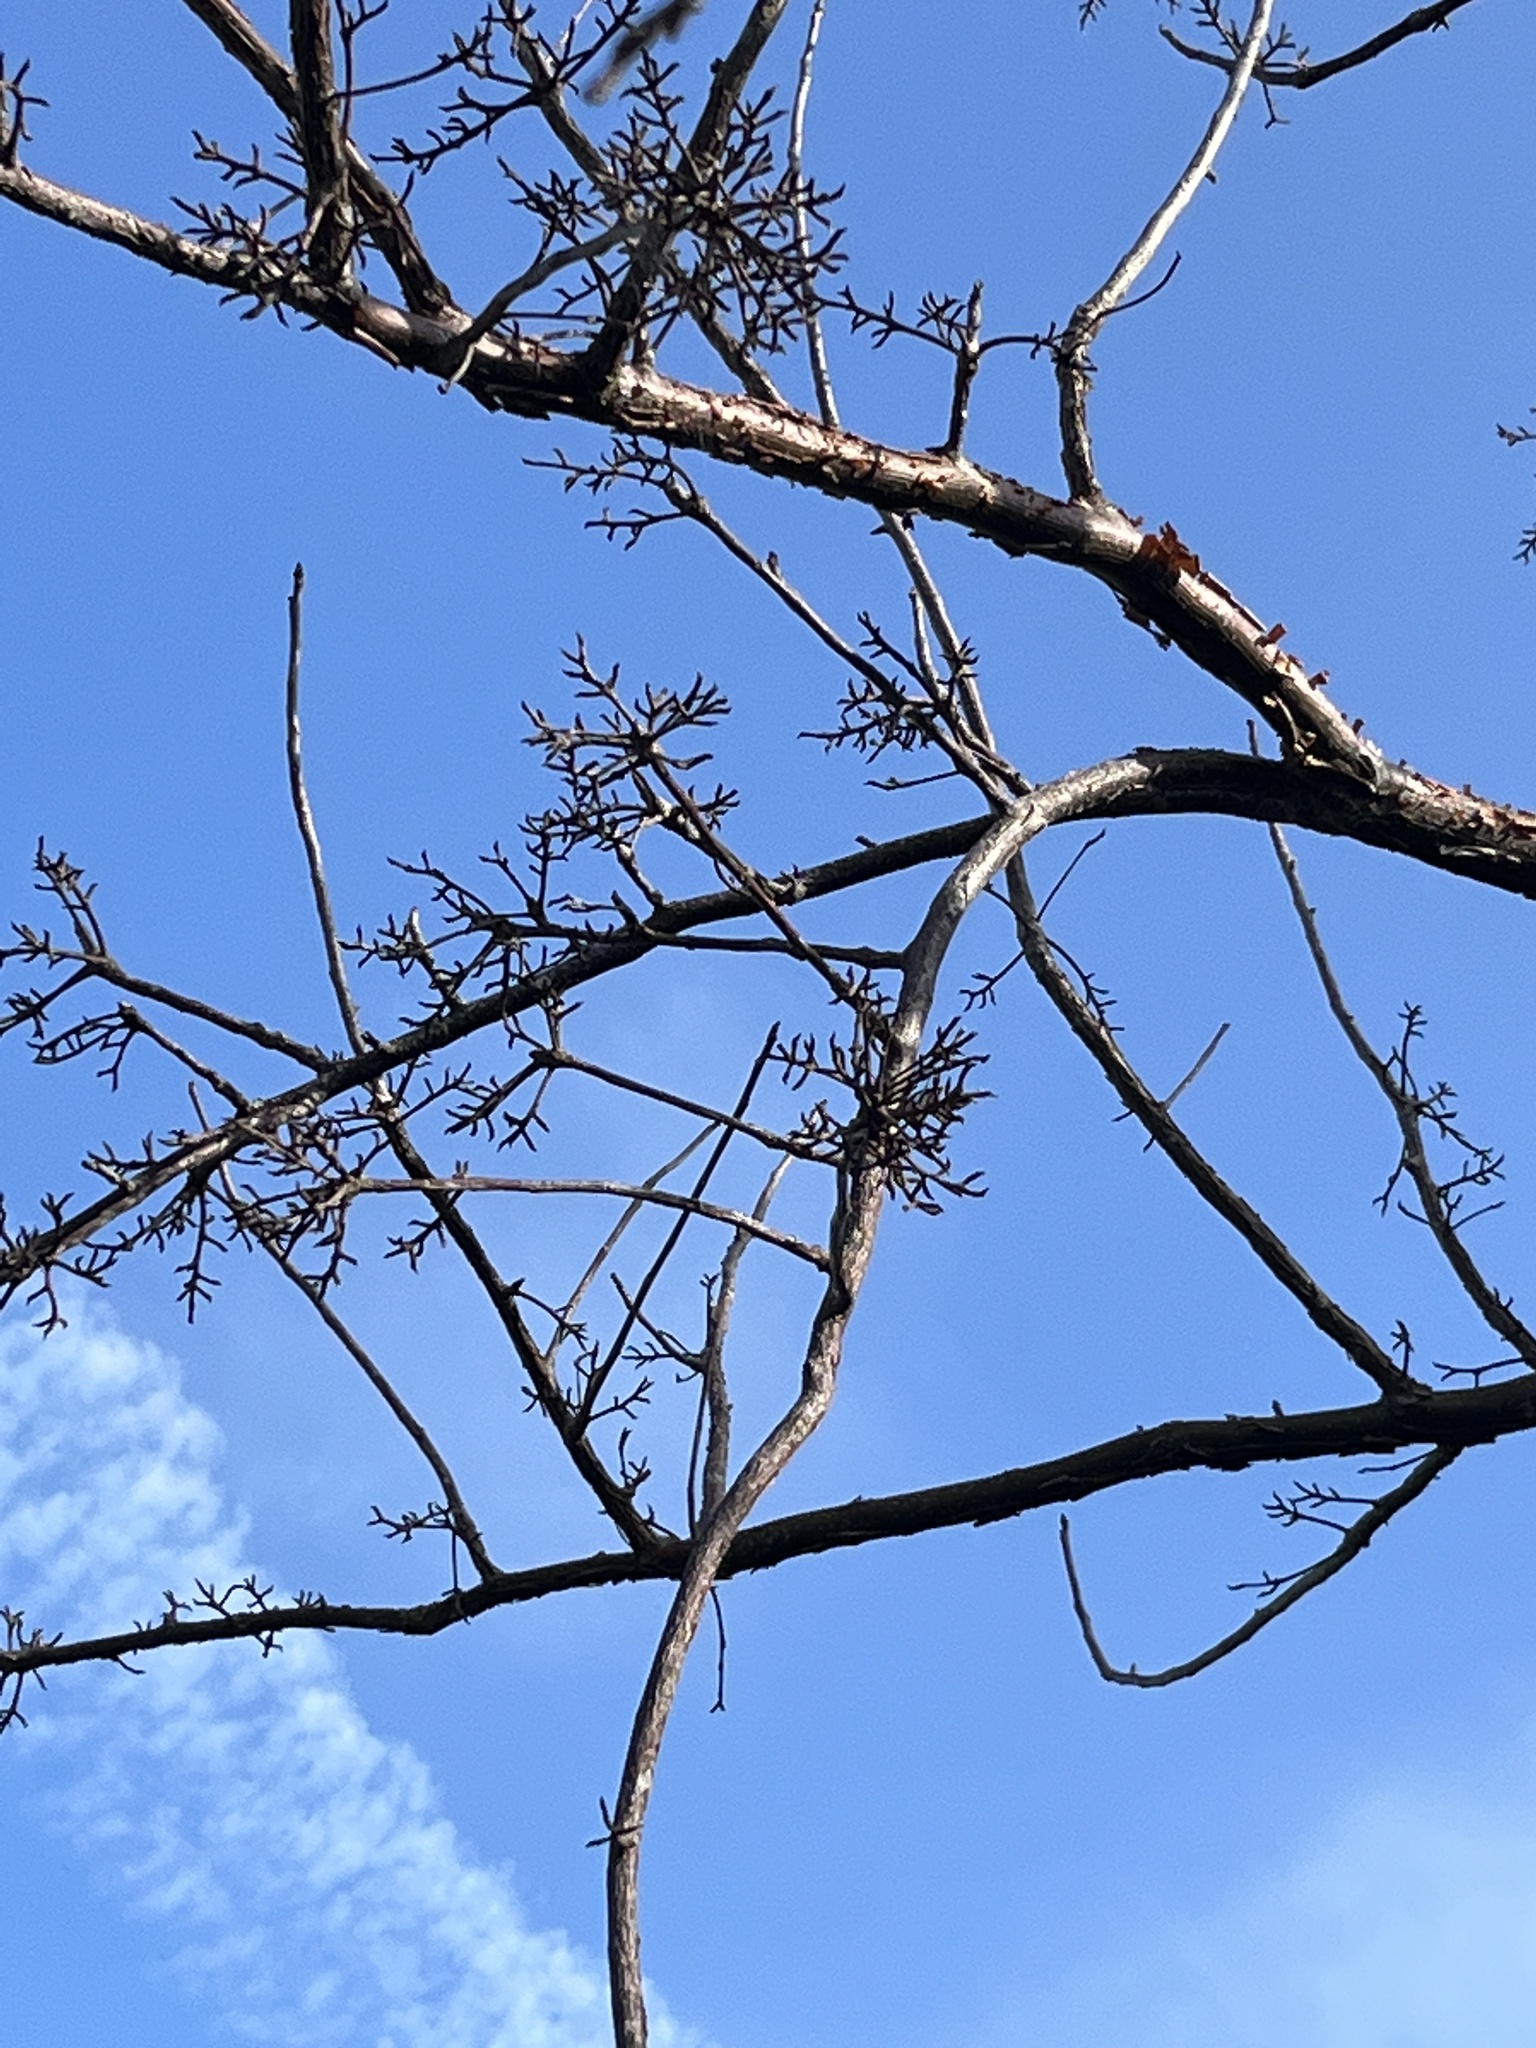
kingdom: Plantae
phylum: Tracheophyta
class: Magnoliopsida
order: Sapindales
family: Burseraceae
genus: Bursera
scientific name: Bursera simaruba
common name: Turpentine tree
